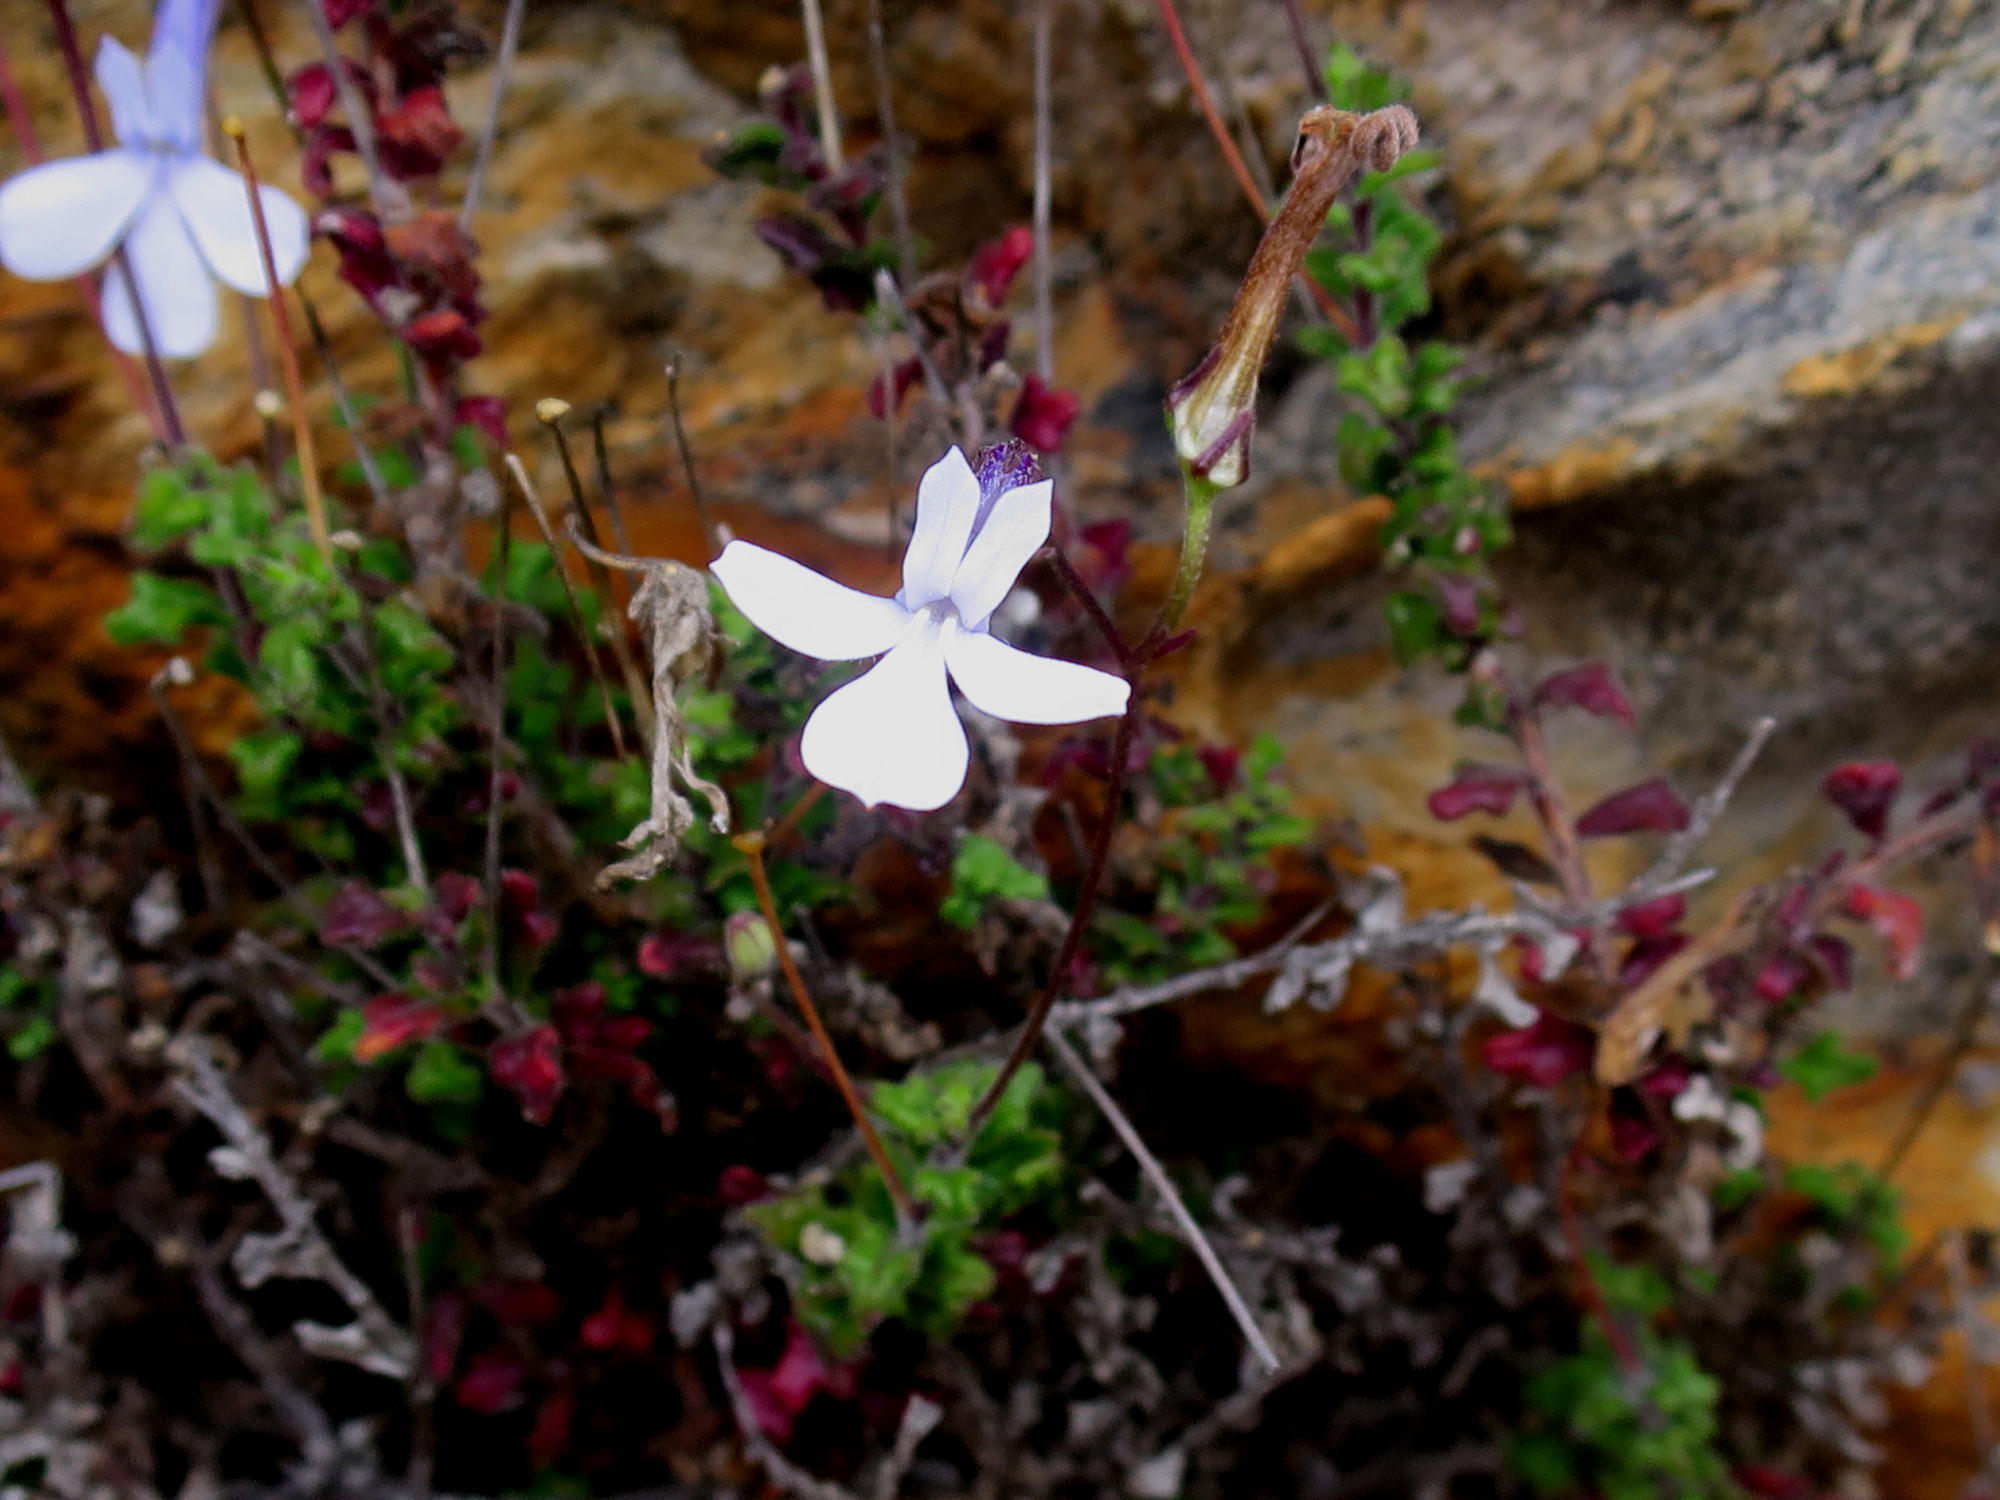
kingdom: Plantae
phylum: Tracheophyta
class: Magnoliopsida
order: Asterales
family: Campanulaceae
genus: Lobelia
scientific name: Lobelia dichroma
